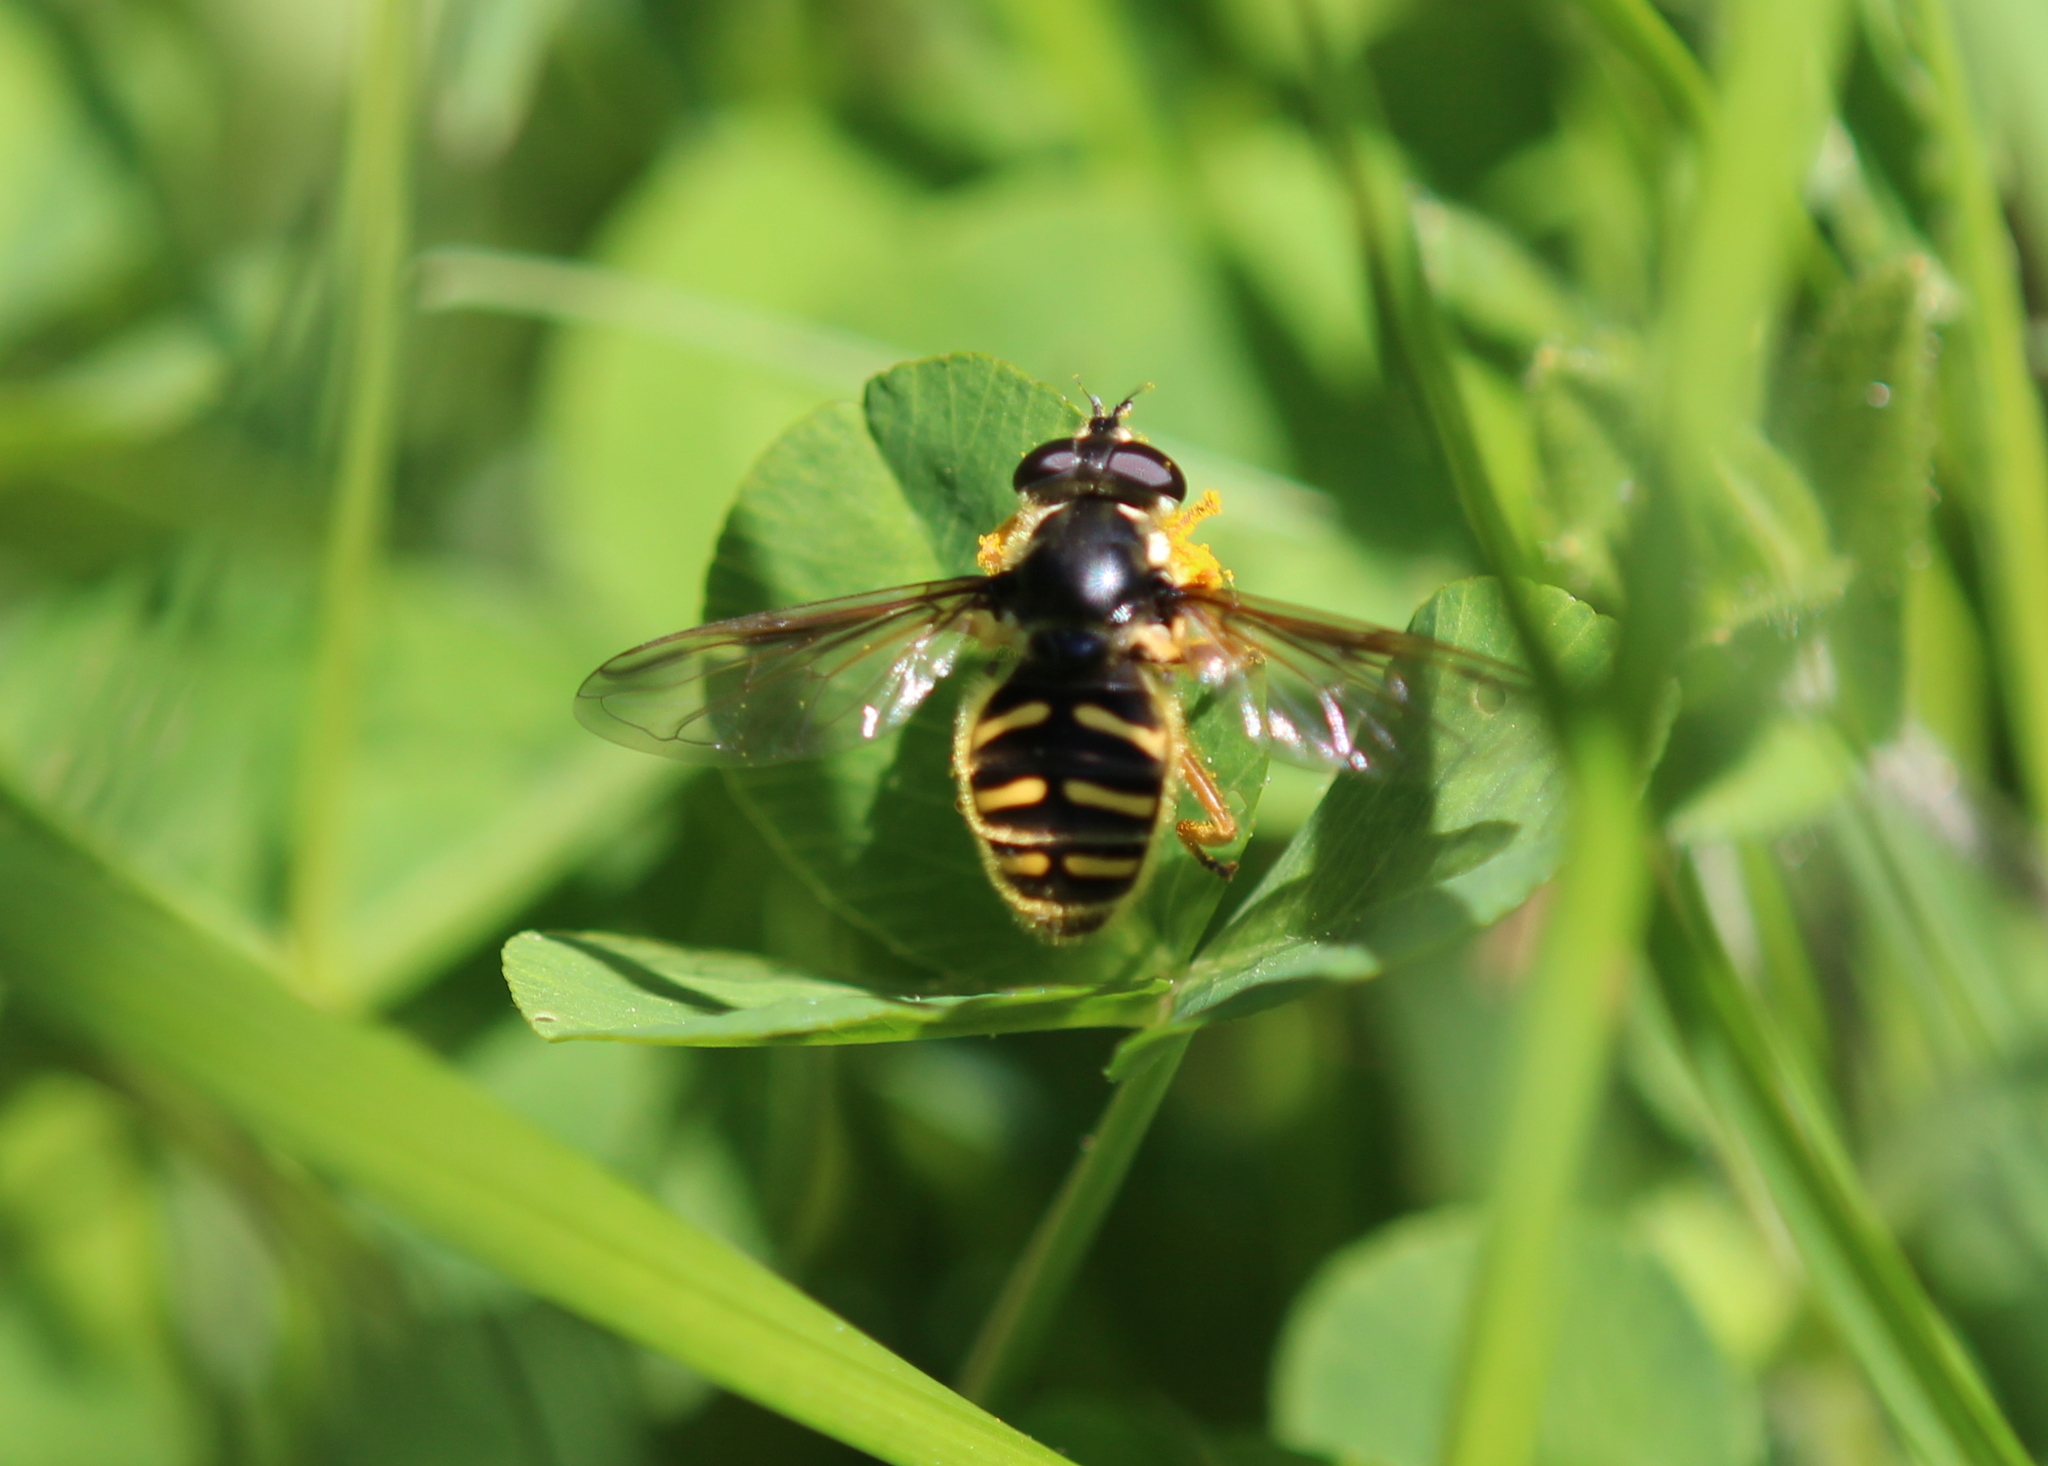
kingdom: Animalia
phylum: Arthropoda
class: Insecta
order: Diptera
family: Syrphidae
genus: Sericomyia
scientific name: Sericomyia chrysotoxoides
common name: Oblique-banded pond fly
